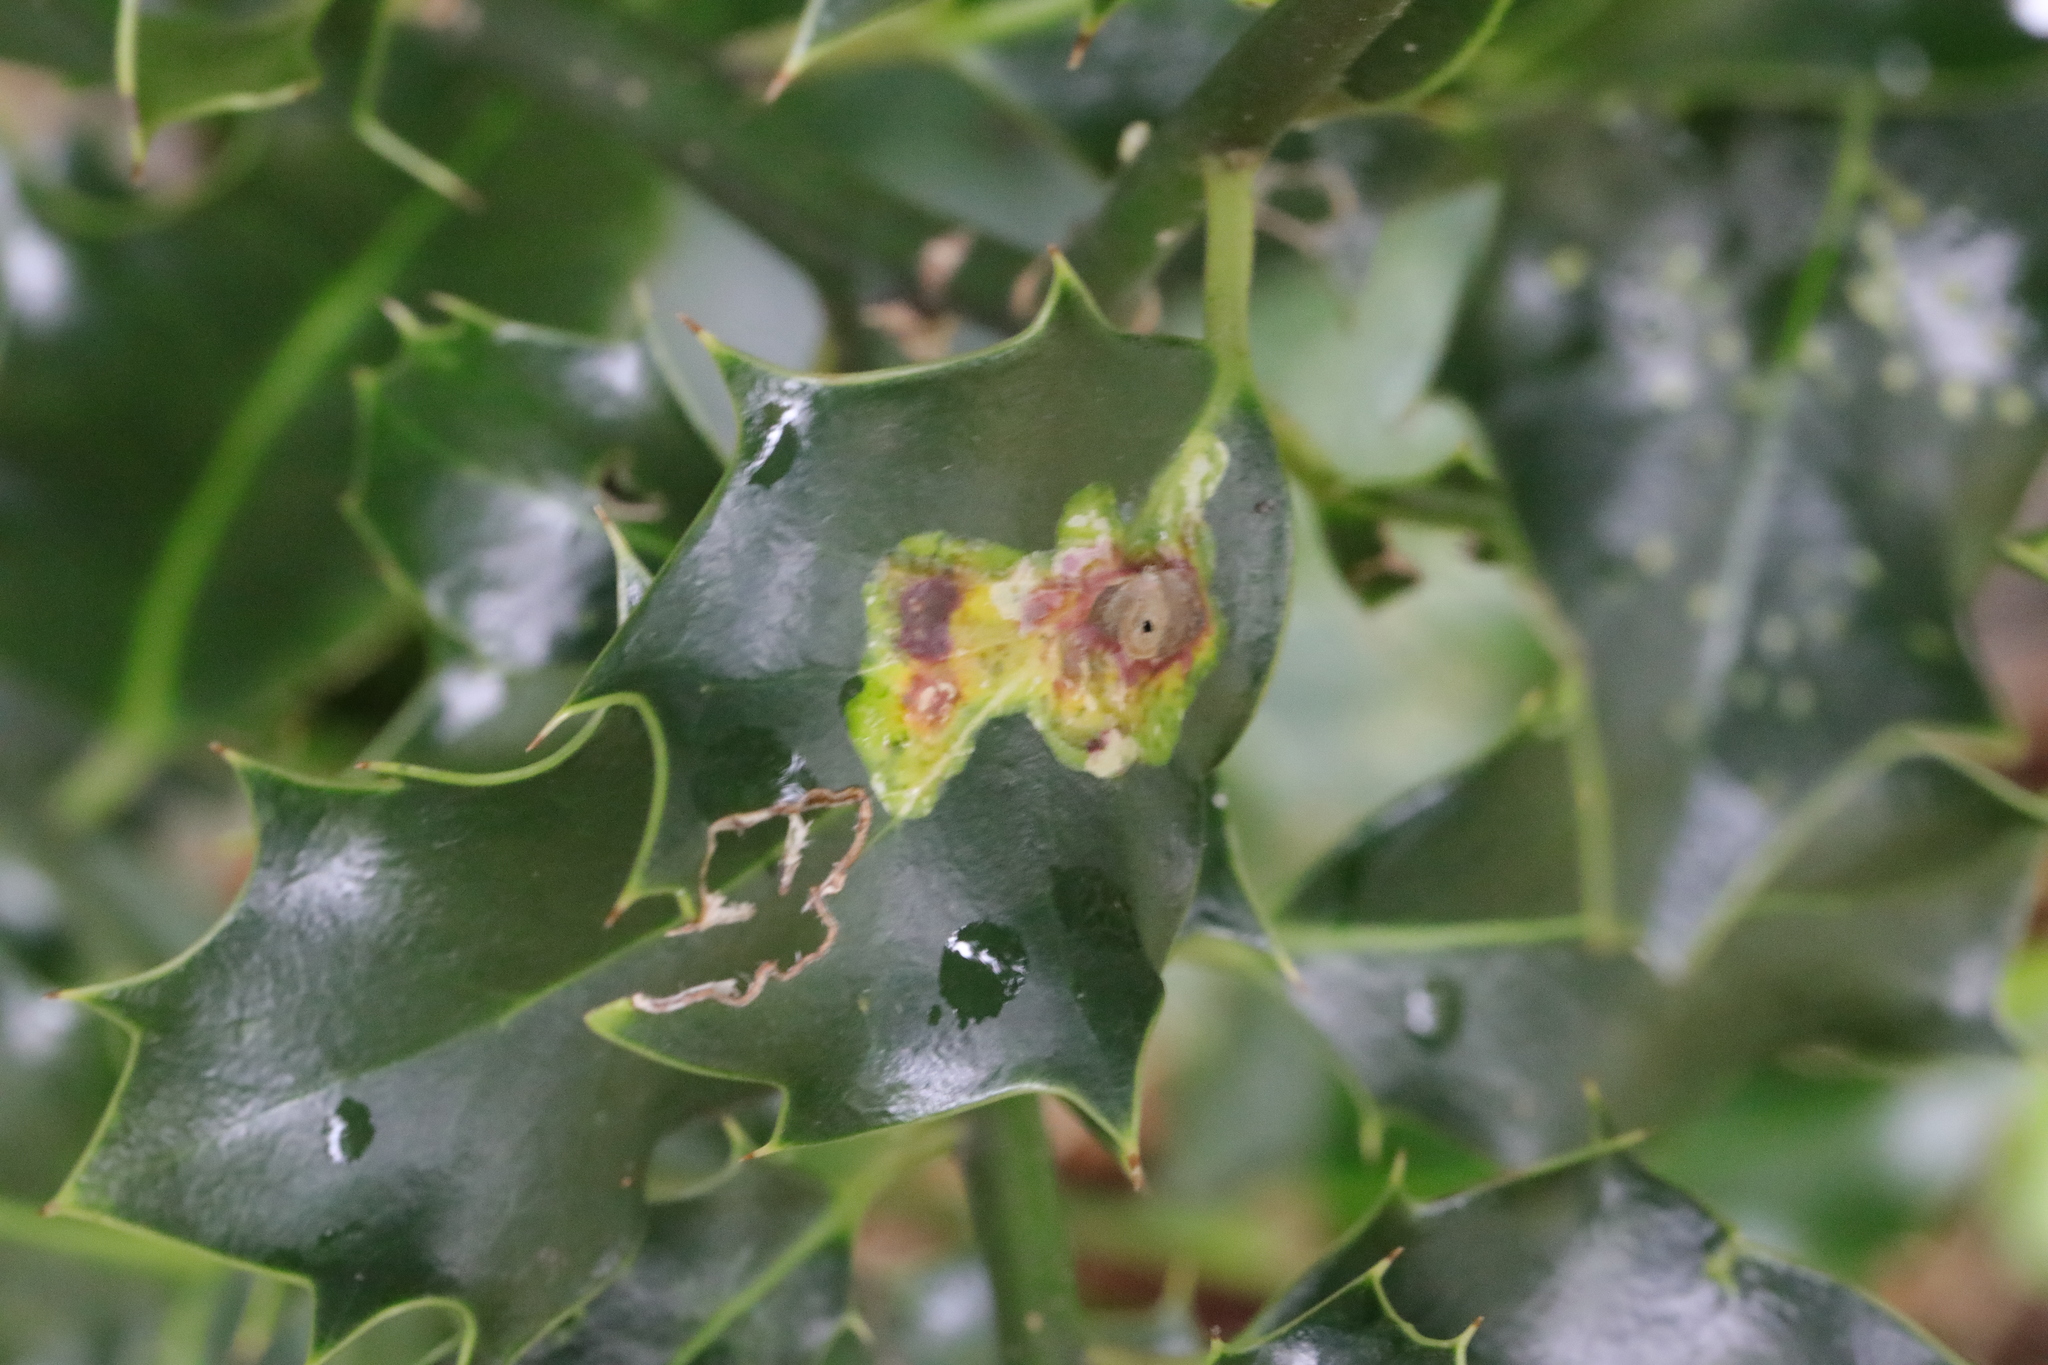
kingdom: Animalia
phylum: Arthropoda
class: Insecta
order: Diptera
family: Agromyzidae
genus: Phytomyza
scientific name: Phytomyza ilicis
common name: Holly leafminer
